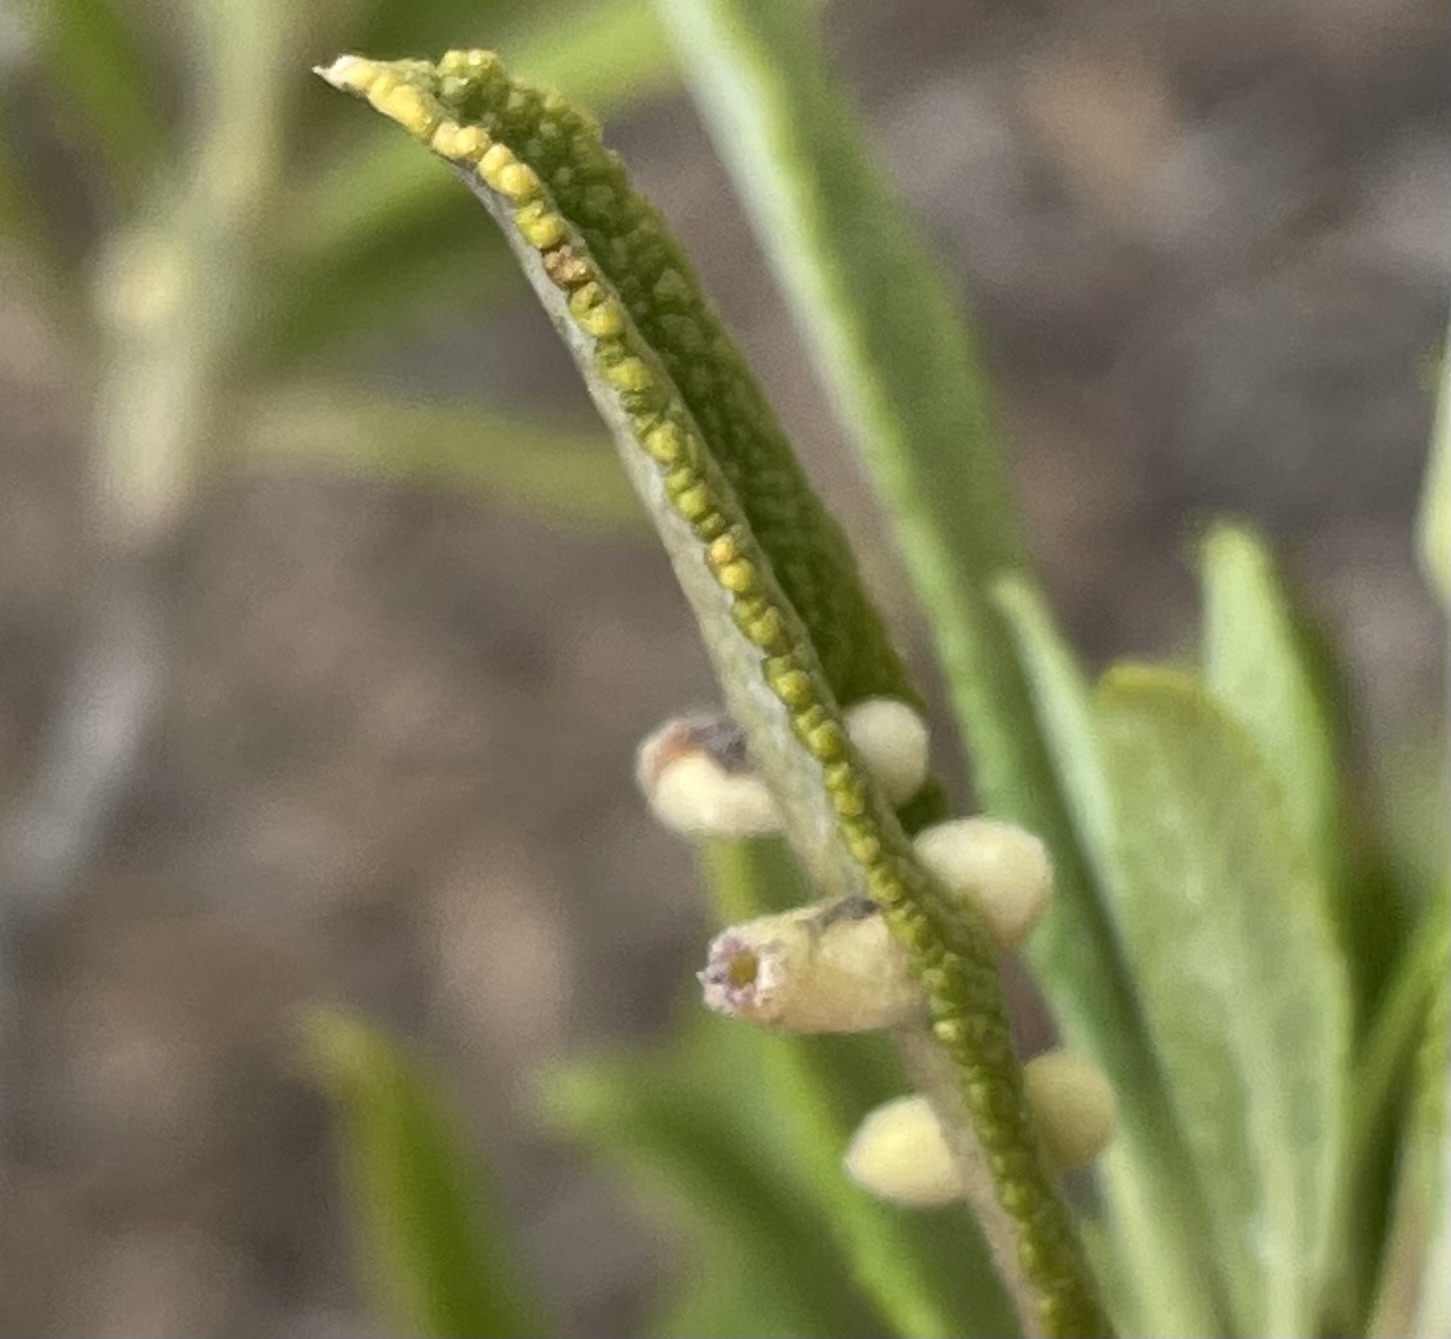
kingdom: Animalia
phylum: Arthropoda
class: Insecta
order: Diptera
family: Cecidomyiidae
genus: Rhopalomyia
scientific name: Rhopalomyia audibertiae
